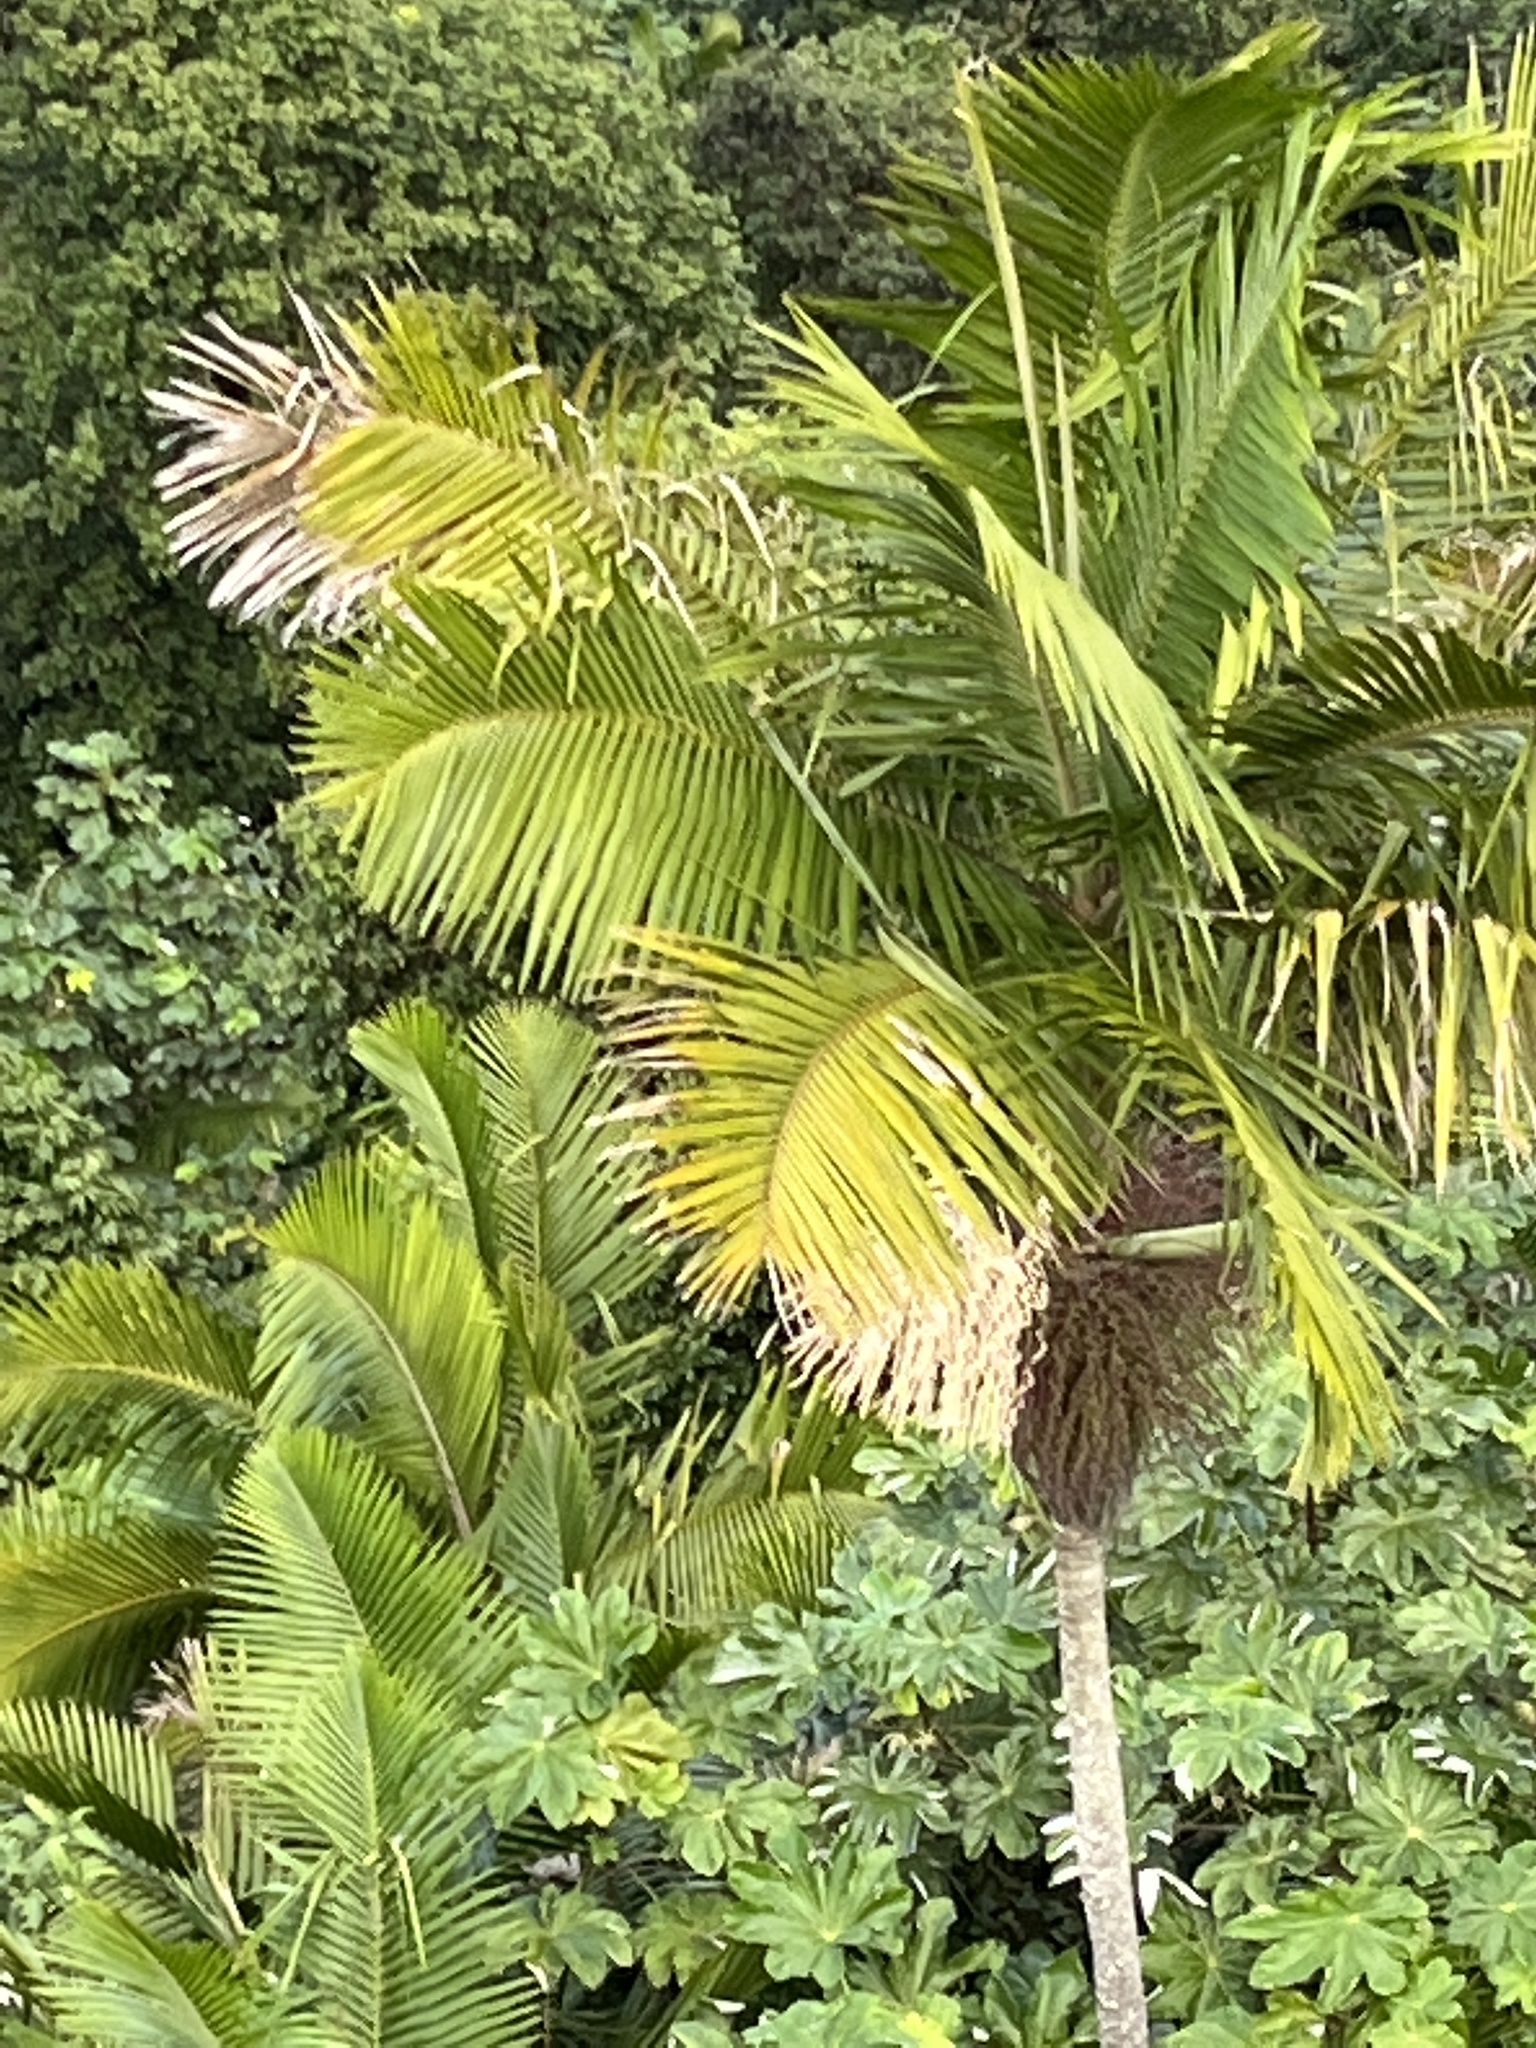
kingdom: Plantae
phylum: Tracheophyta
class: Liliopsida
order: Arecales
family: Arecaceae
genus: Prestoea
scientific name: Prestoea acuminata
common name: Sierran palm
